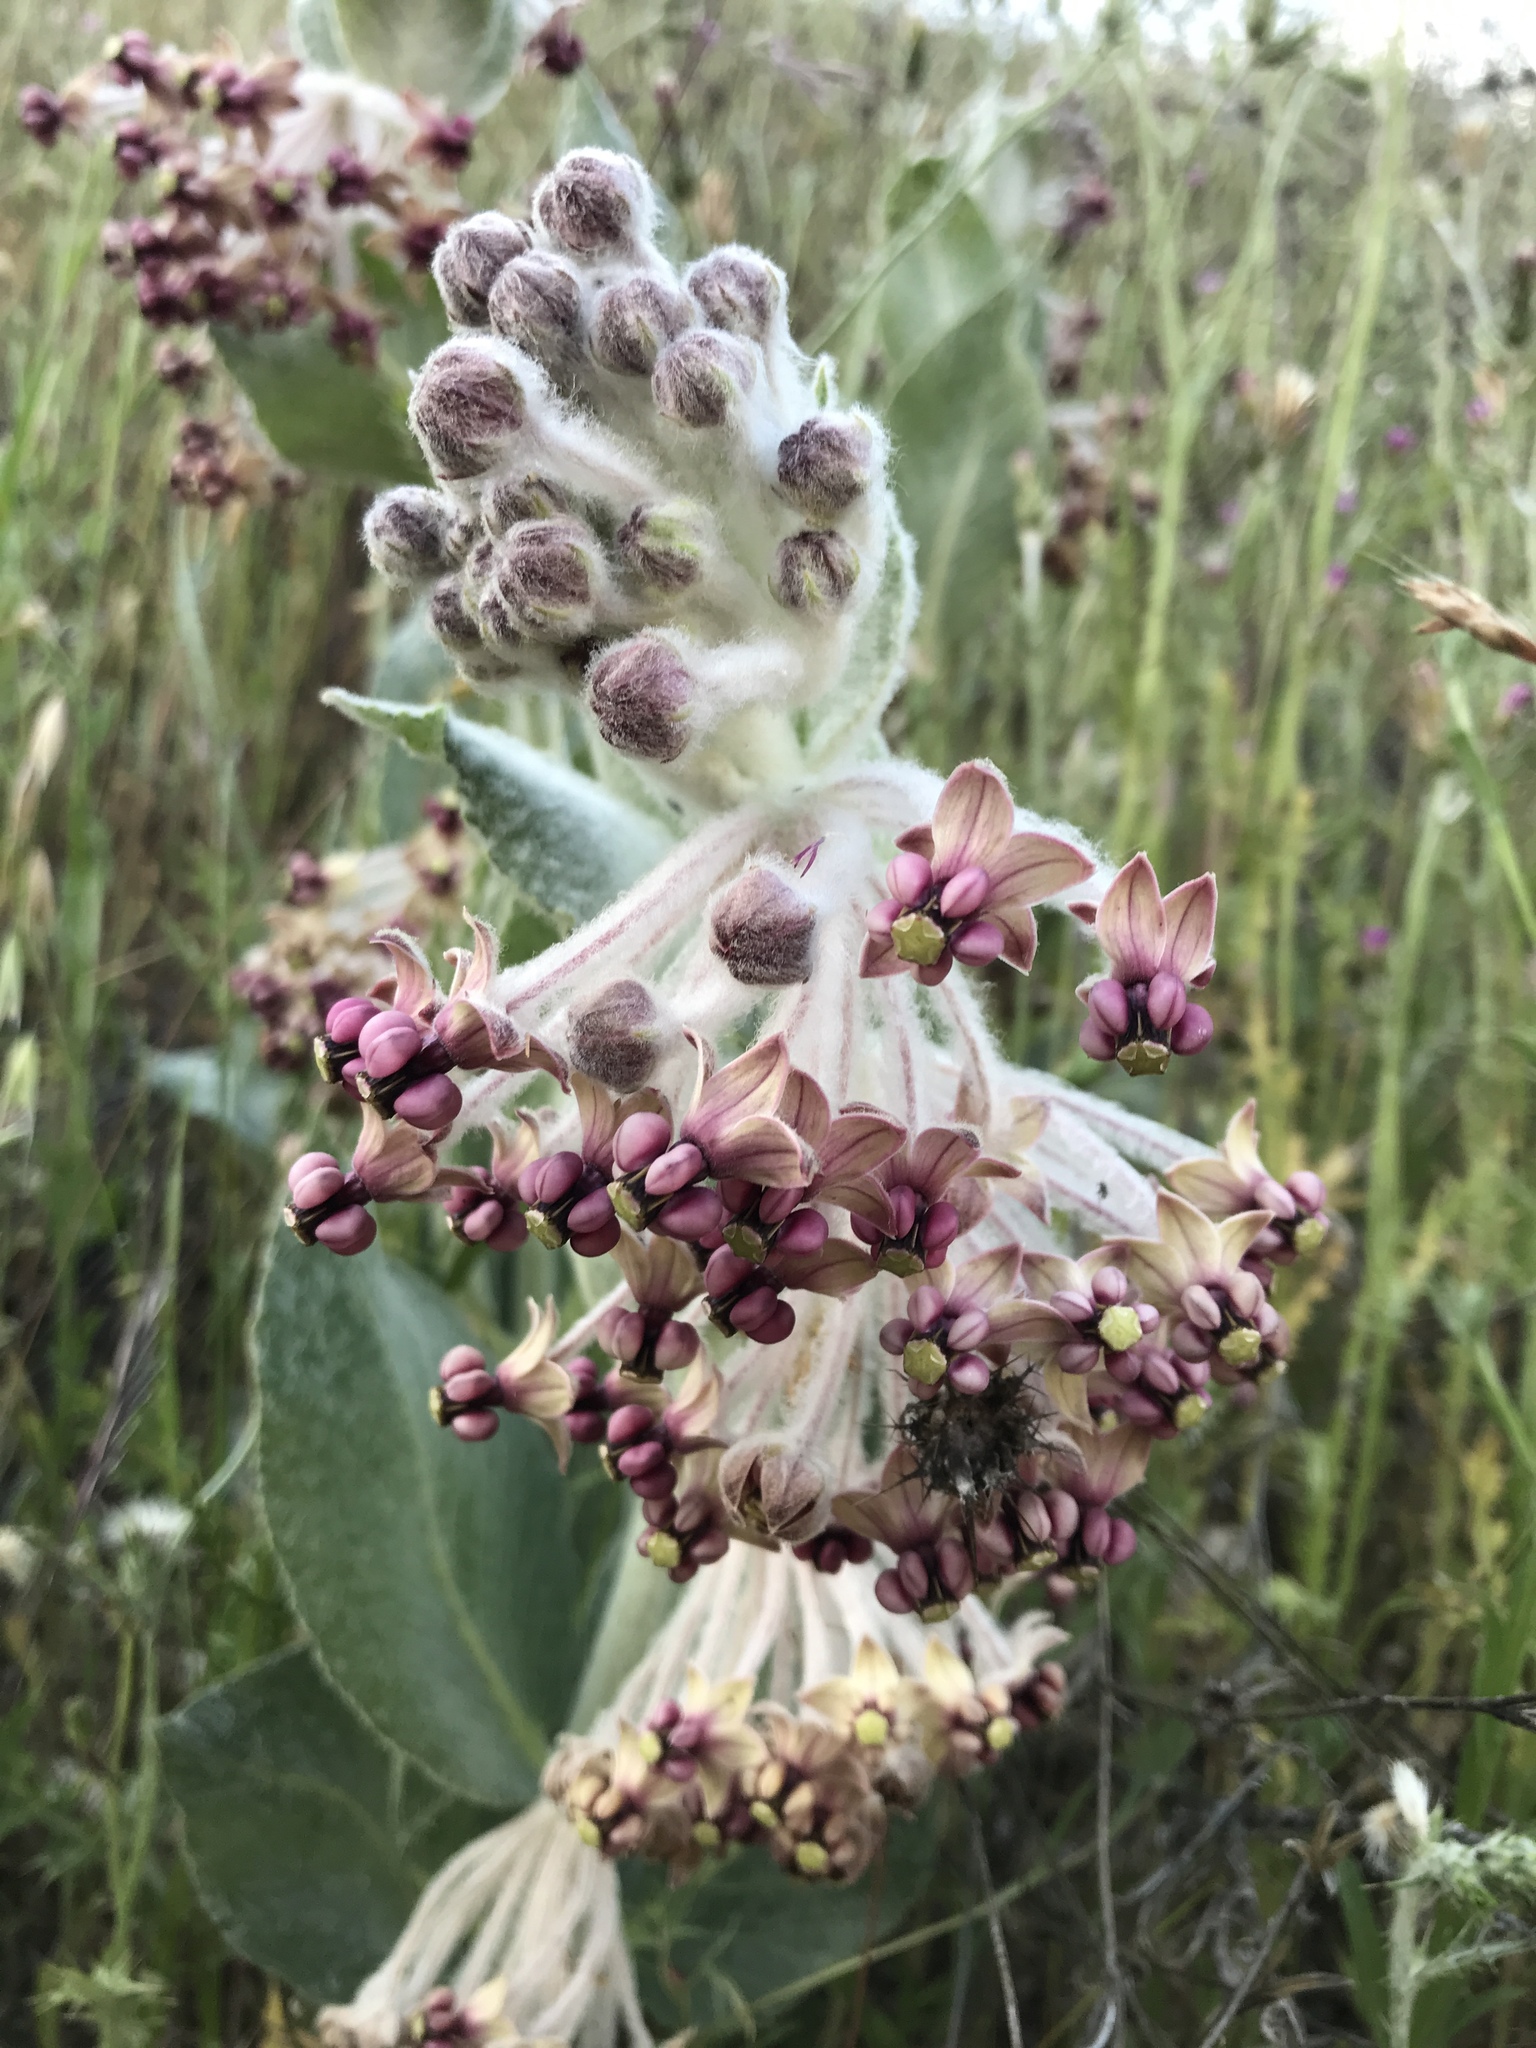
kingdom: Plantae
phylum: Tracheophyta
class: Magnoliopsida
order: Gentianales
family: Apocynaceae
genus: Asclepias
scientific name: Asclepias californica
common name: California milkweed
